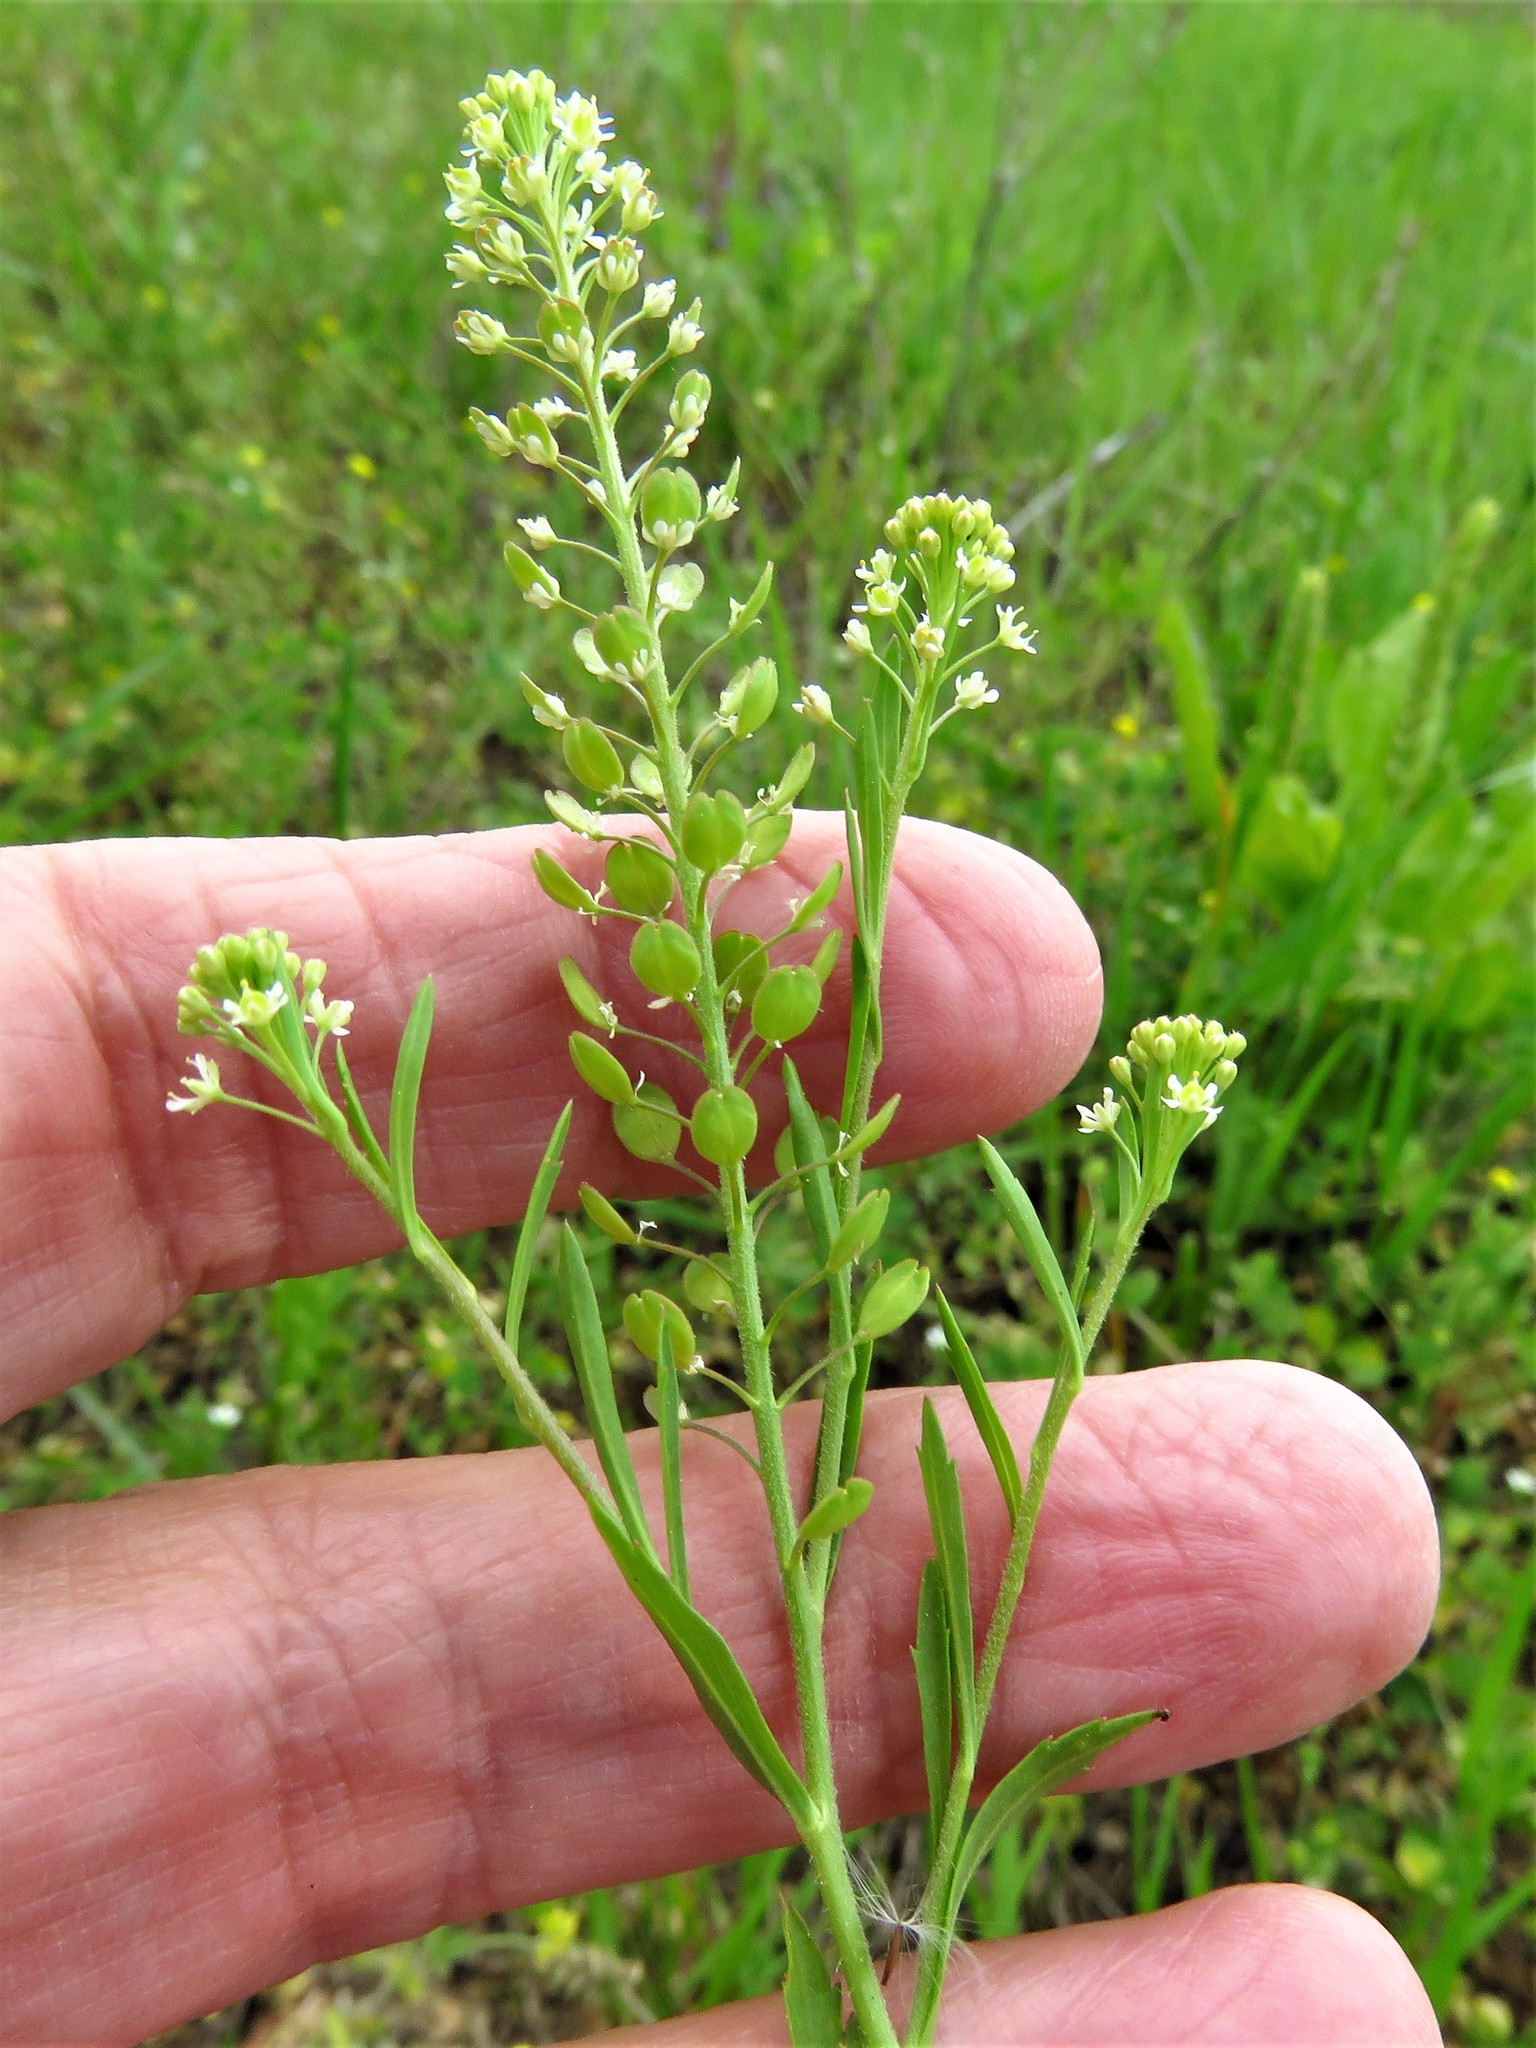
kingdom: Plantae
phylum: Tracheophyta
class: Magnoliopsida
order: Brassicales
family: Brassicaceae
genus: Lepidium
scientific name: Lepidium virginicum
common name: Least pepperwort
